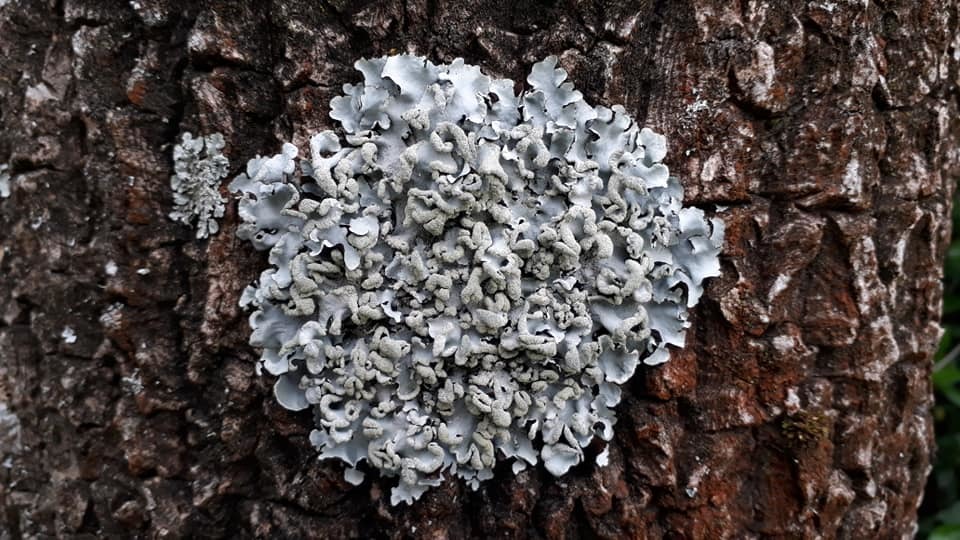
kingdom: Fungi
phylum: Ascomycota
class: Lecanoromycetes
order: Lecanorales
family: Parmeliaceae
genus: Parmotrema
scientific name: Parmotrema perlatum
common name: Black stone flower
